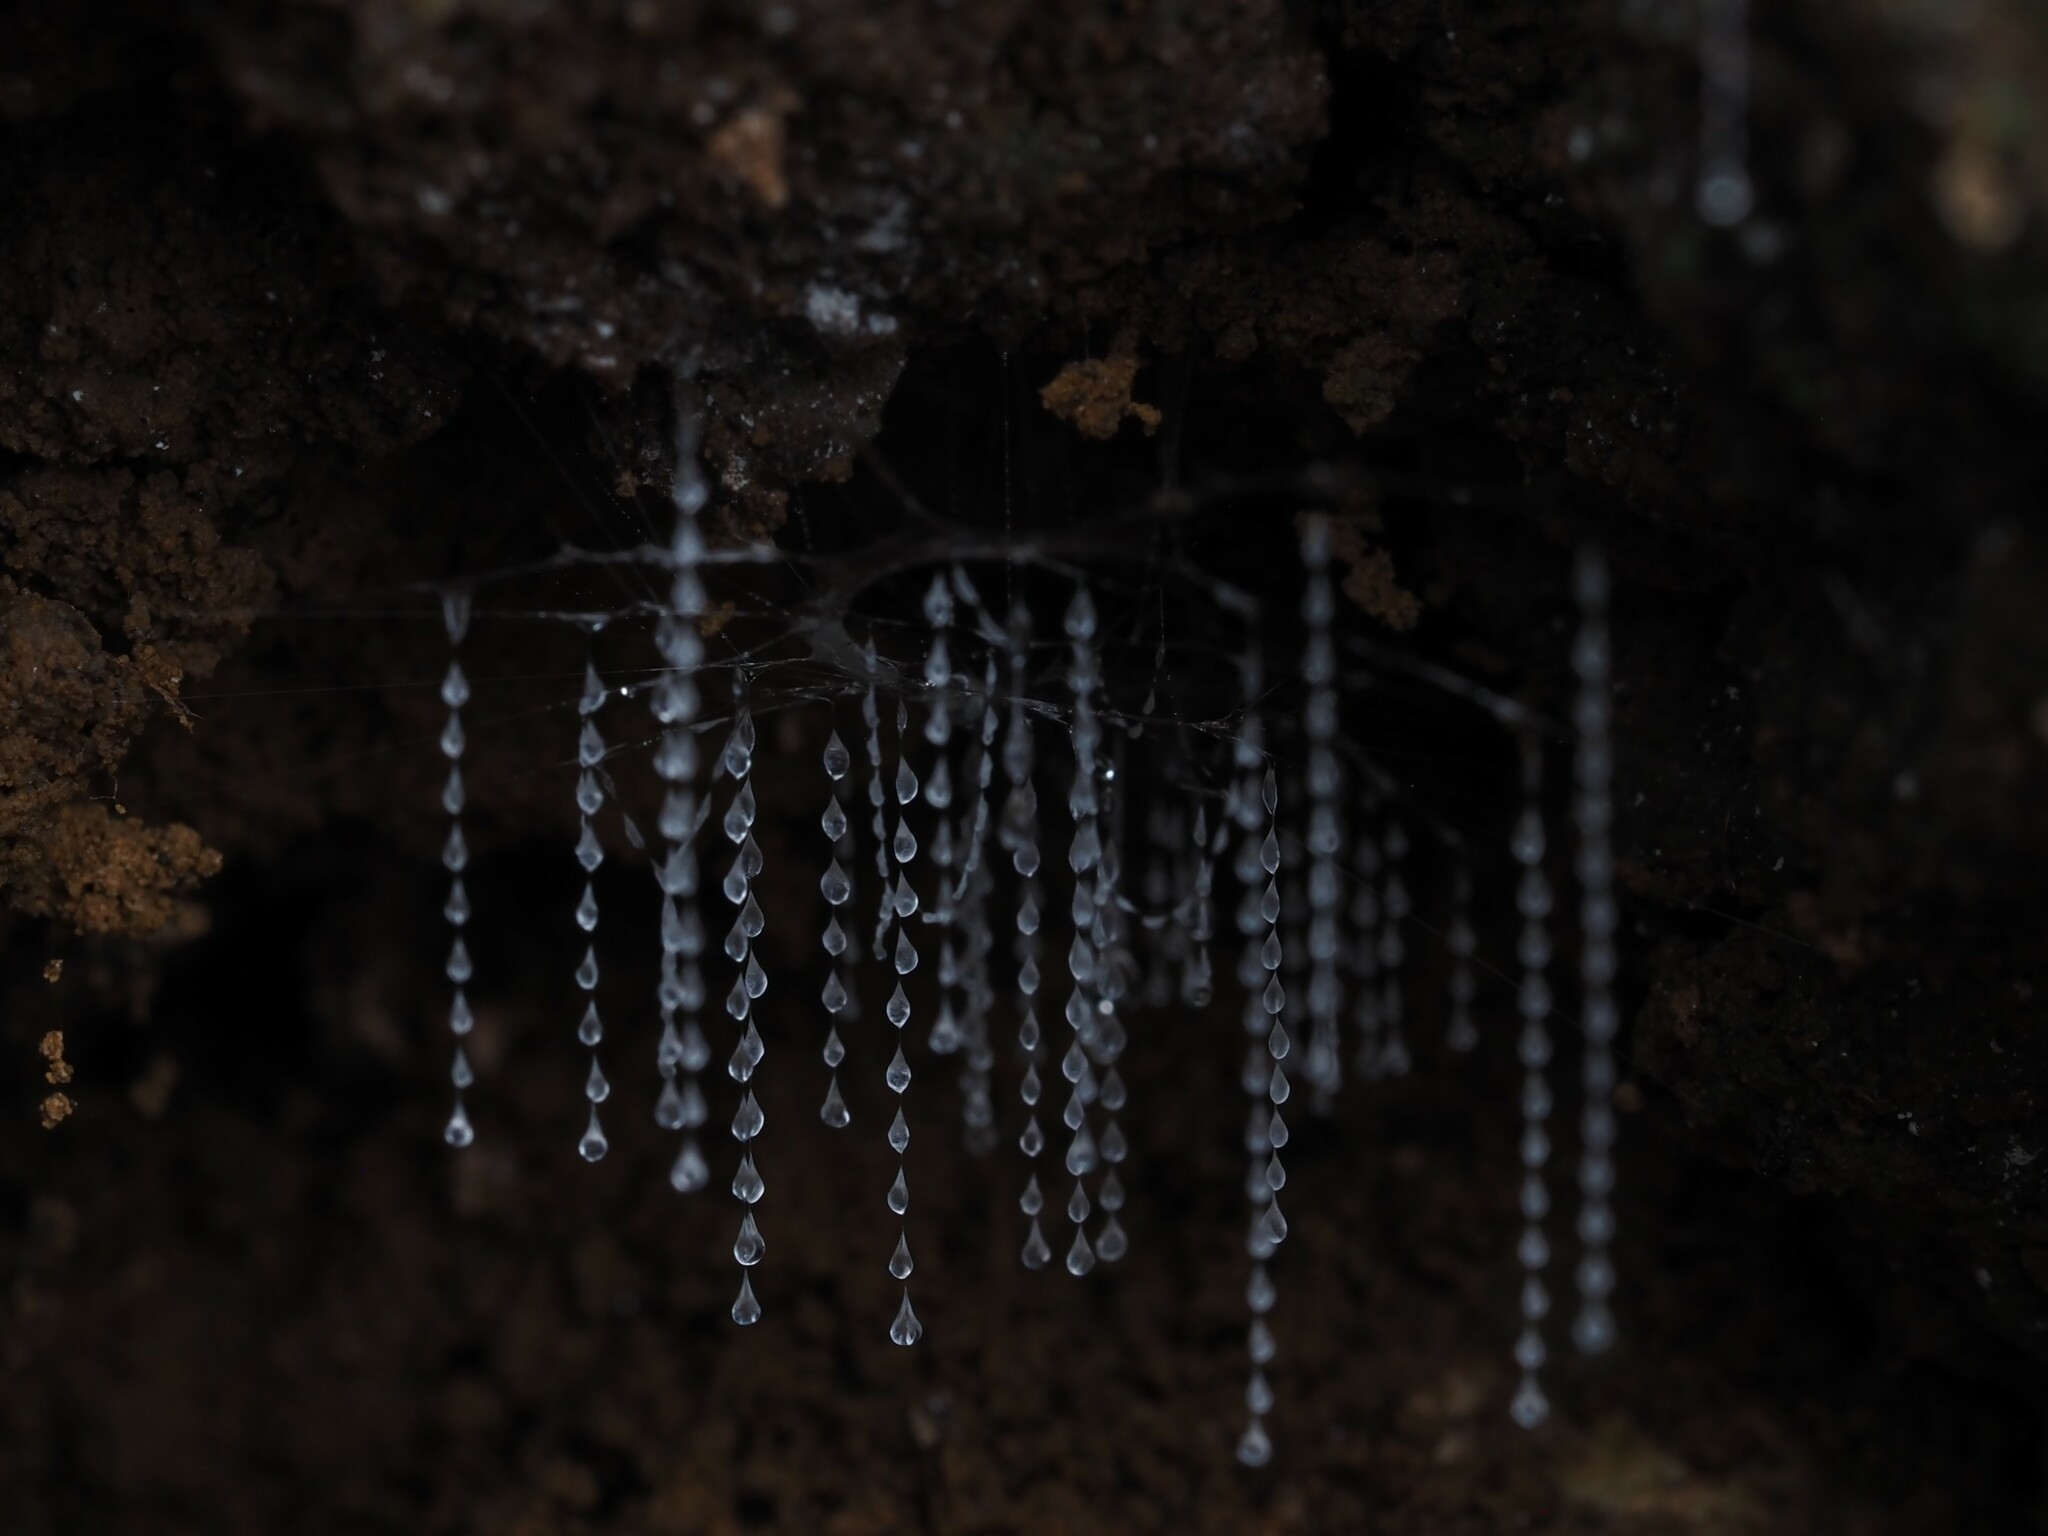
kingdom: Animalia
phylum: Arthropoda
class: Insecta
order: Diptera
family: Keroplatidae
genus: Arachnocampa
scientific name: Arachnocampa luminosa
